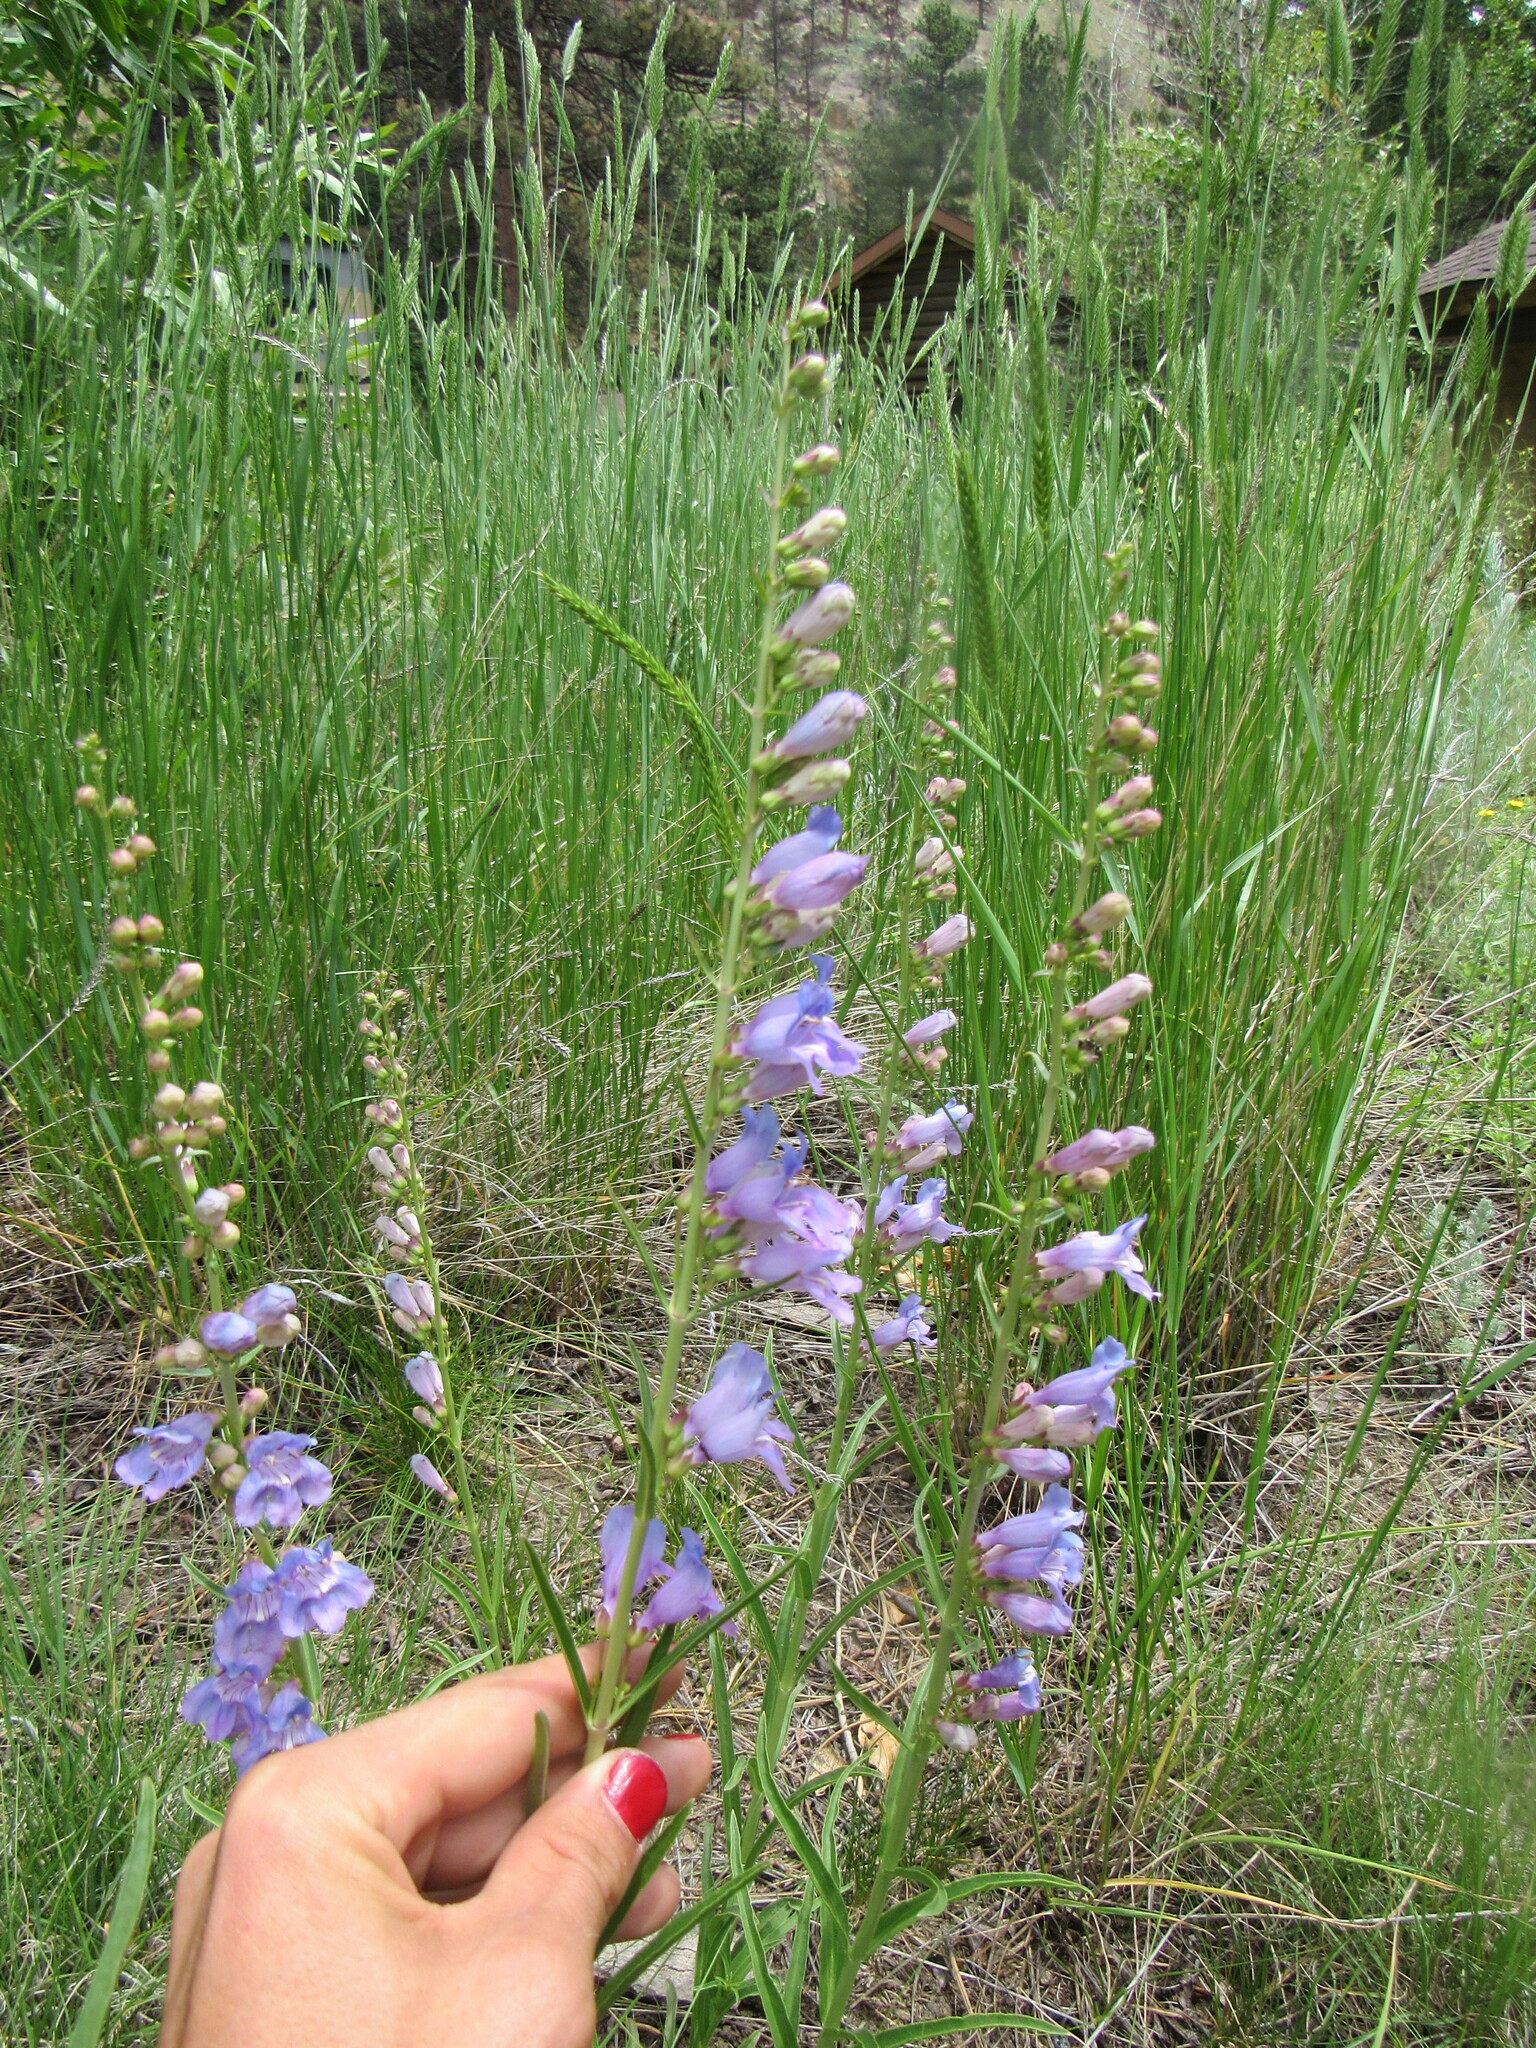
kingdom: Plantae
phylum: Tracheophyta
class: Magnoliopsida
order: Lamiales
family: Plantaginaceae
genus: Penstemon
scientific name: Penstemon virgatus
